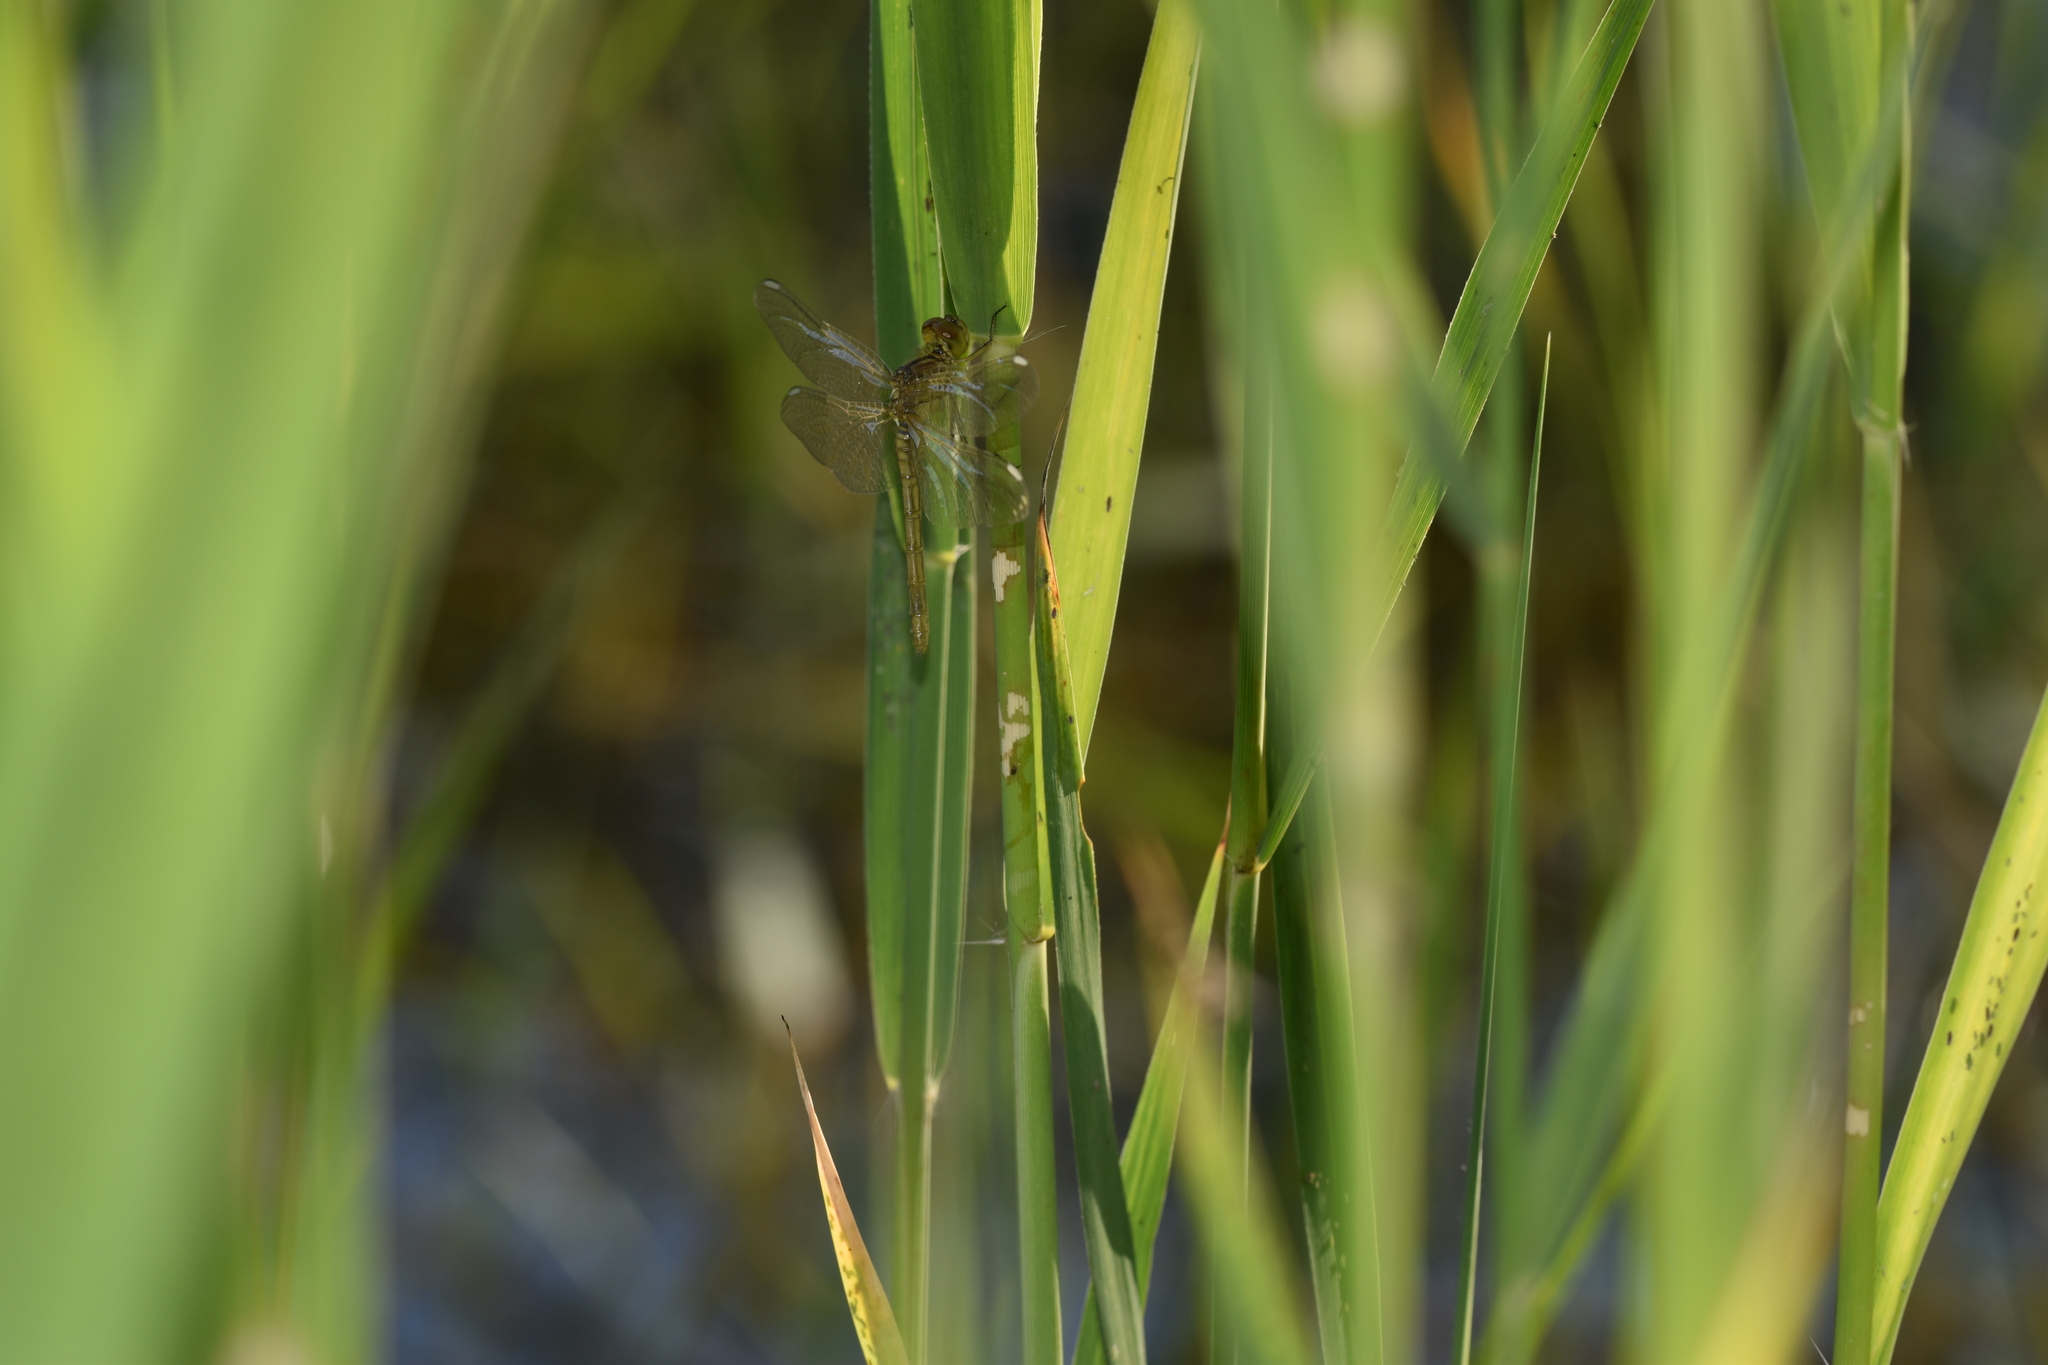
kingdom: Animalia
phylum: Arthropoda
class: Insecta
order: Odonata
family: Libellulidae
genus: Sympetrum
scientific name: Sympetrum meridionale
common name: Southern darter
